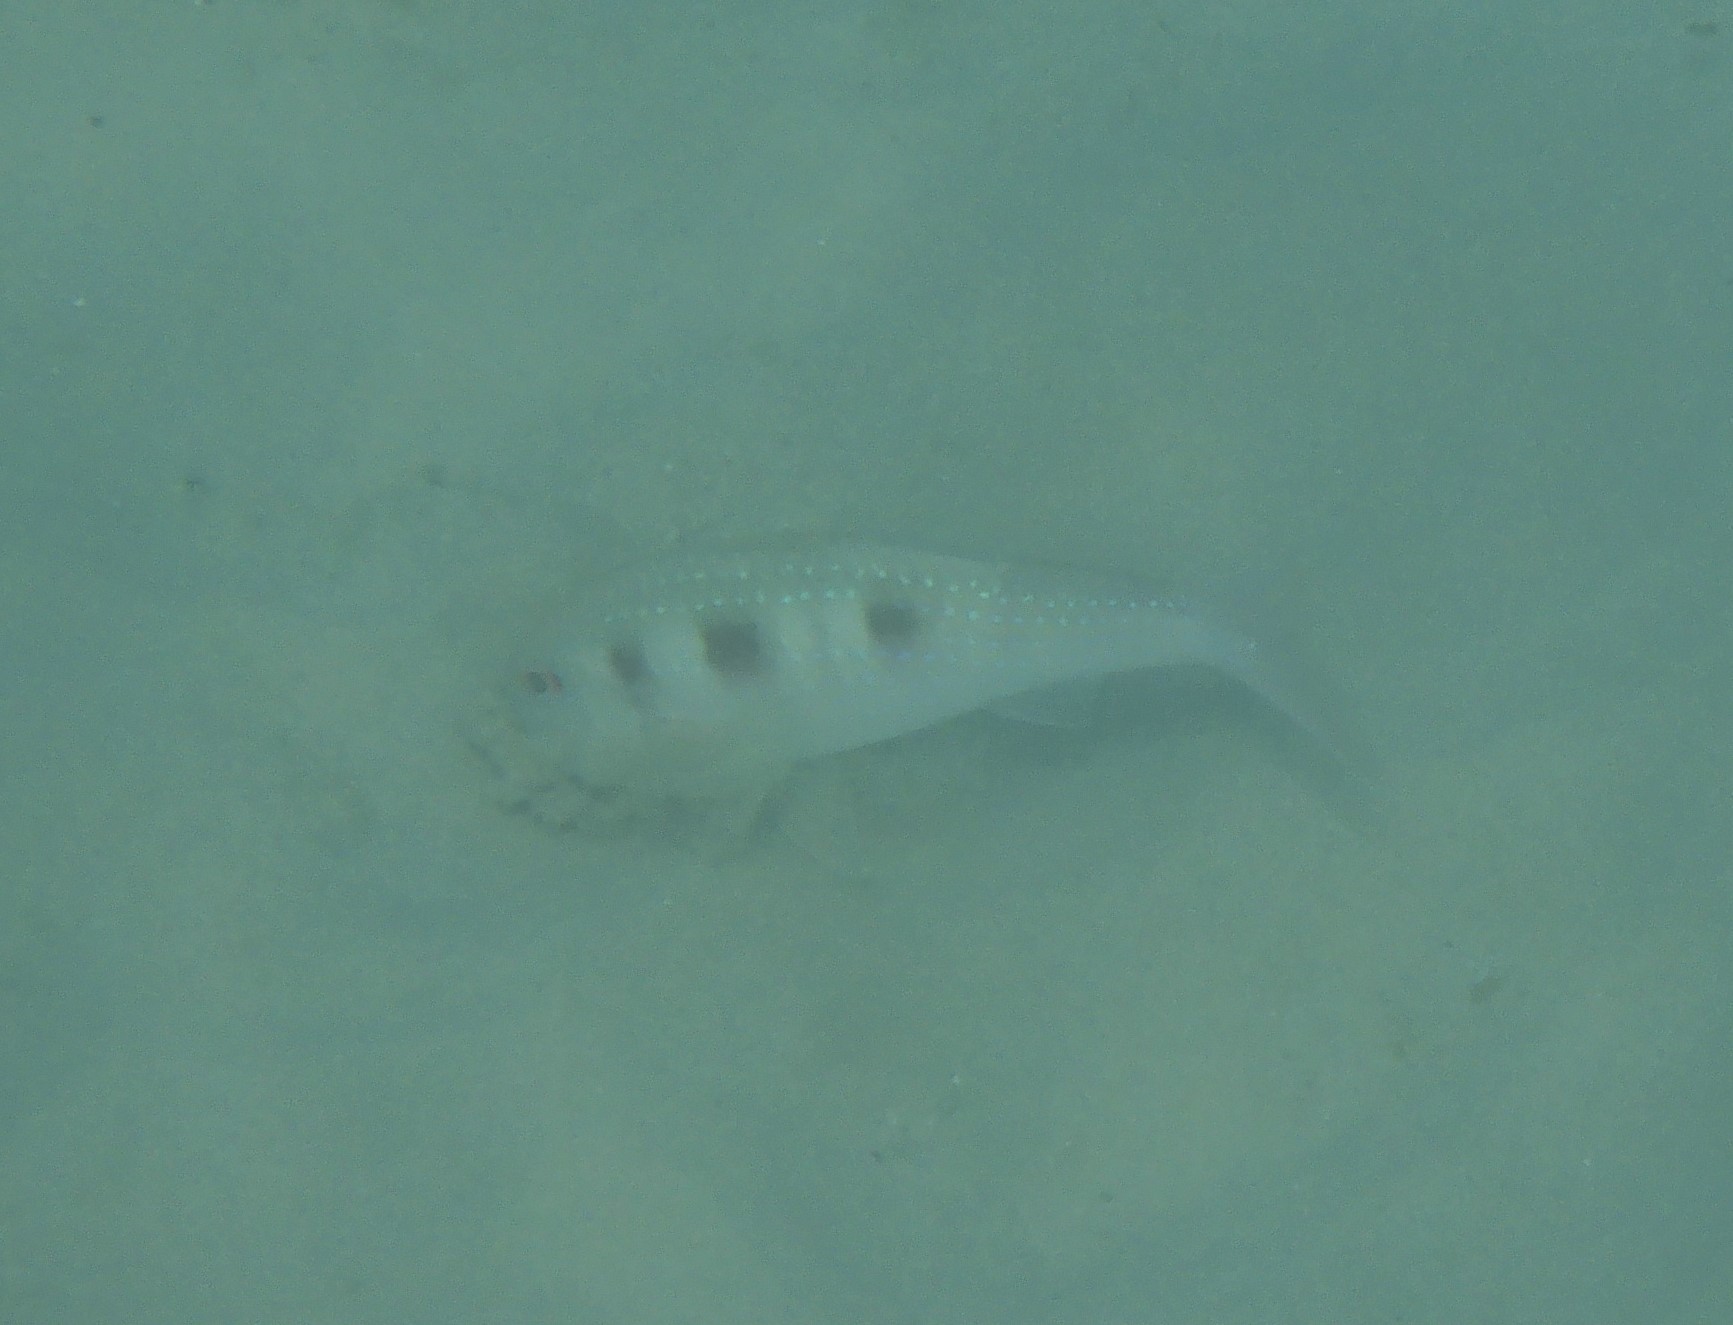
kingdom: Animalia
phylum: Chordata
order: Perciformes
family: Mullidae
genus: Pseudupeneus
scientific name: Pseudupeneus maculatus
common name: Spotted goatfish
